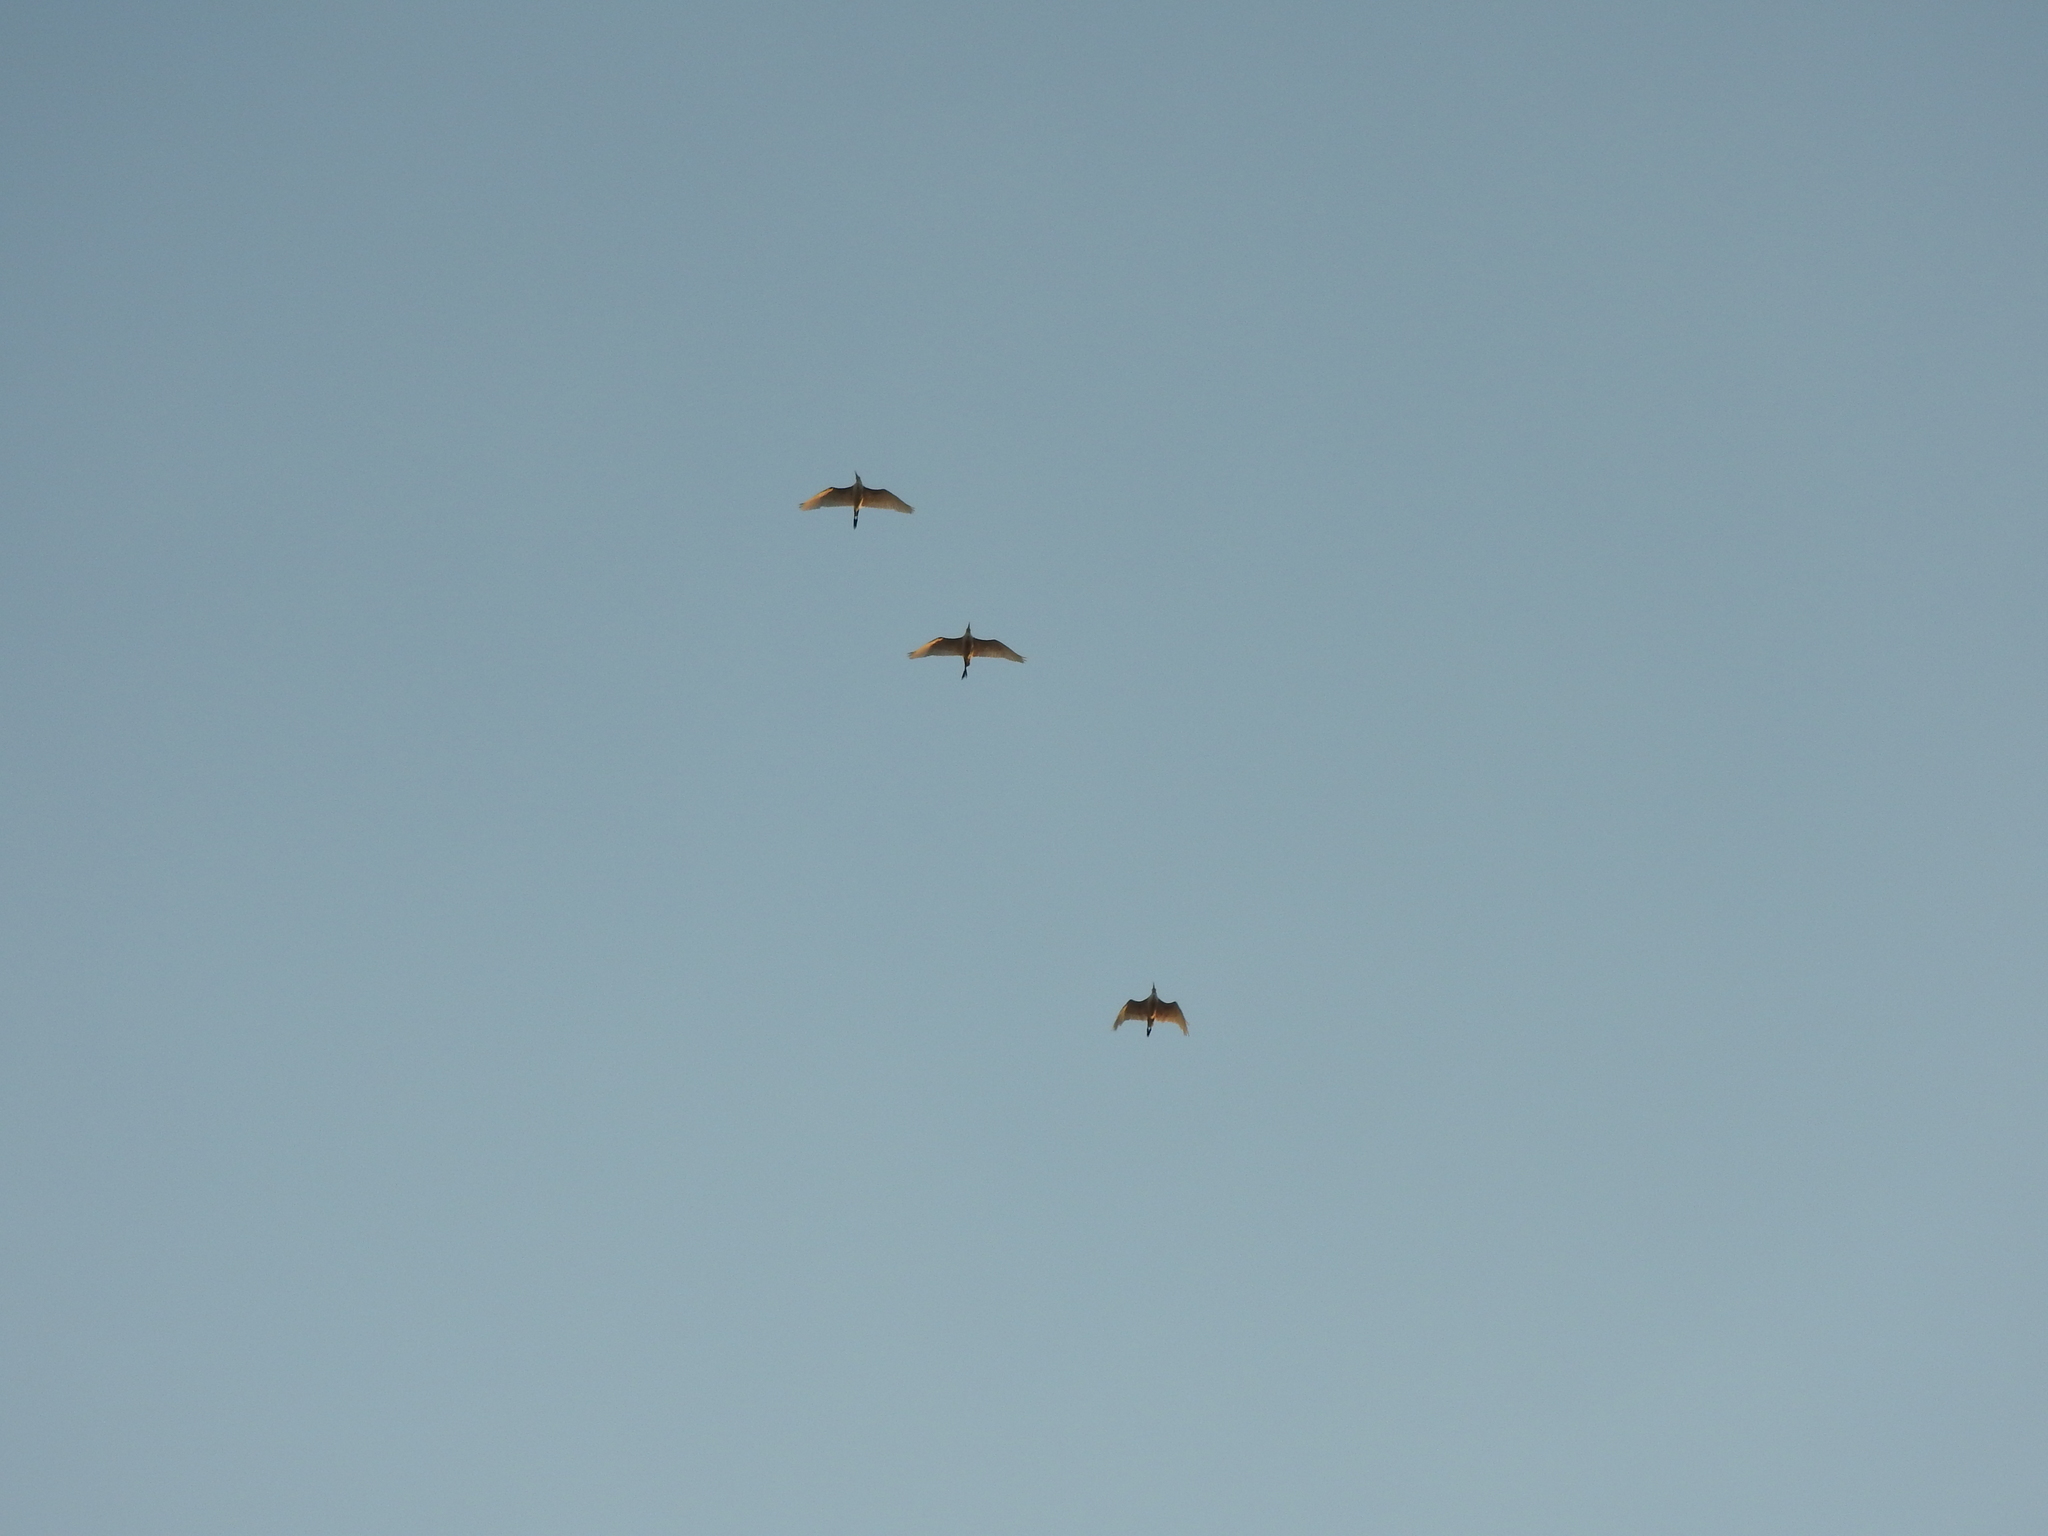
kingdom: Animalia
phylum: Chordata
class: Aves
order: Pelecaniformes
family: Ardeidae
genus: Bubulcus
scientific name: Bubulcus ibis
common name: Cattle egret
